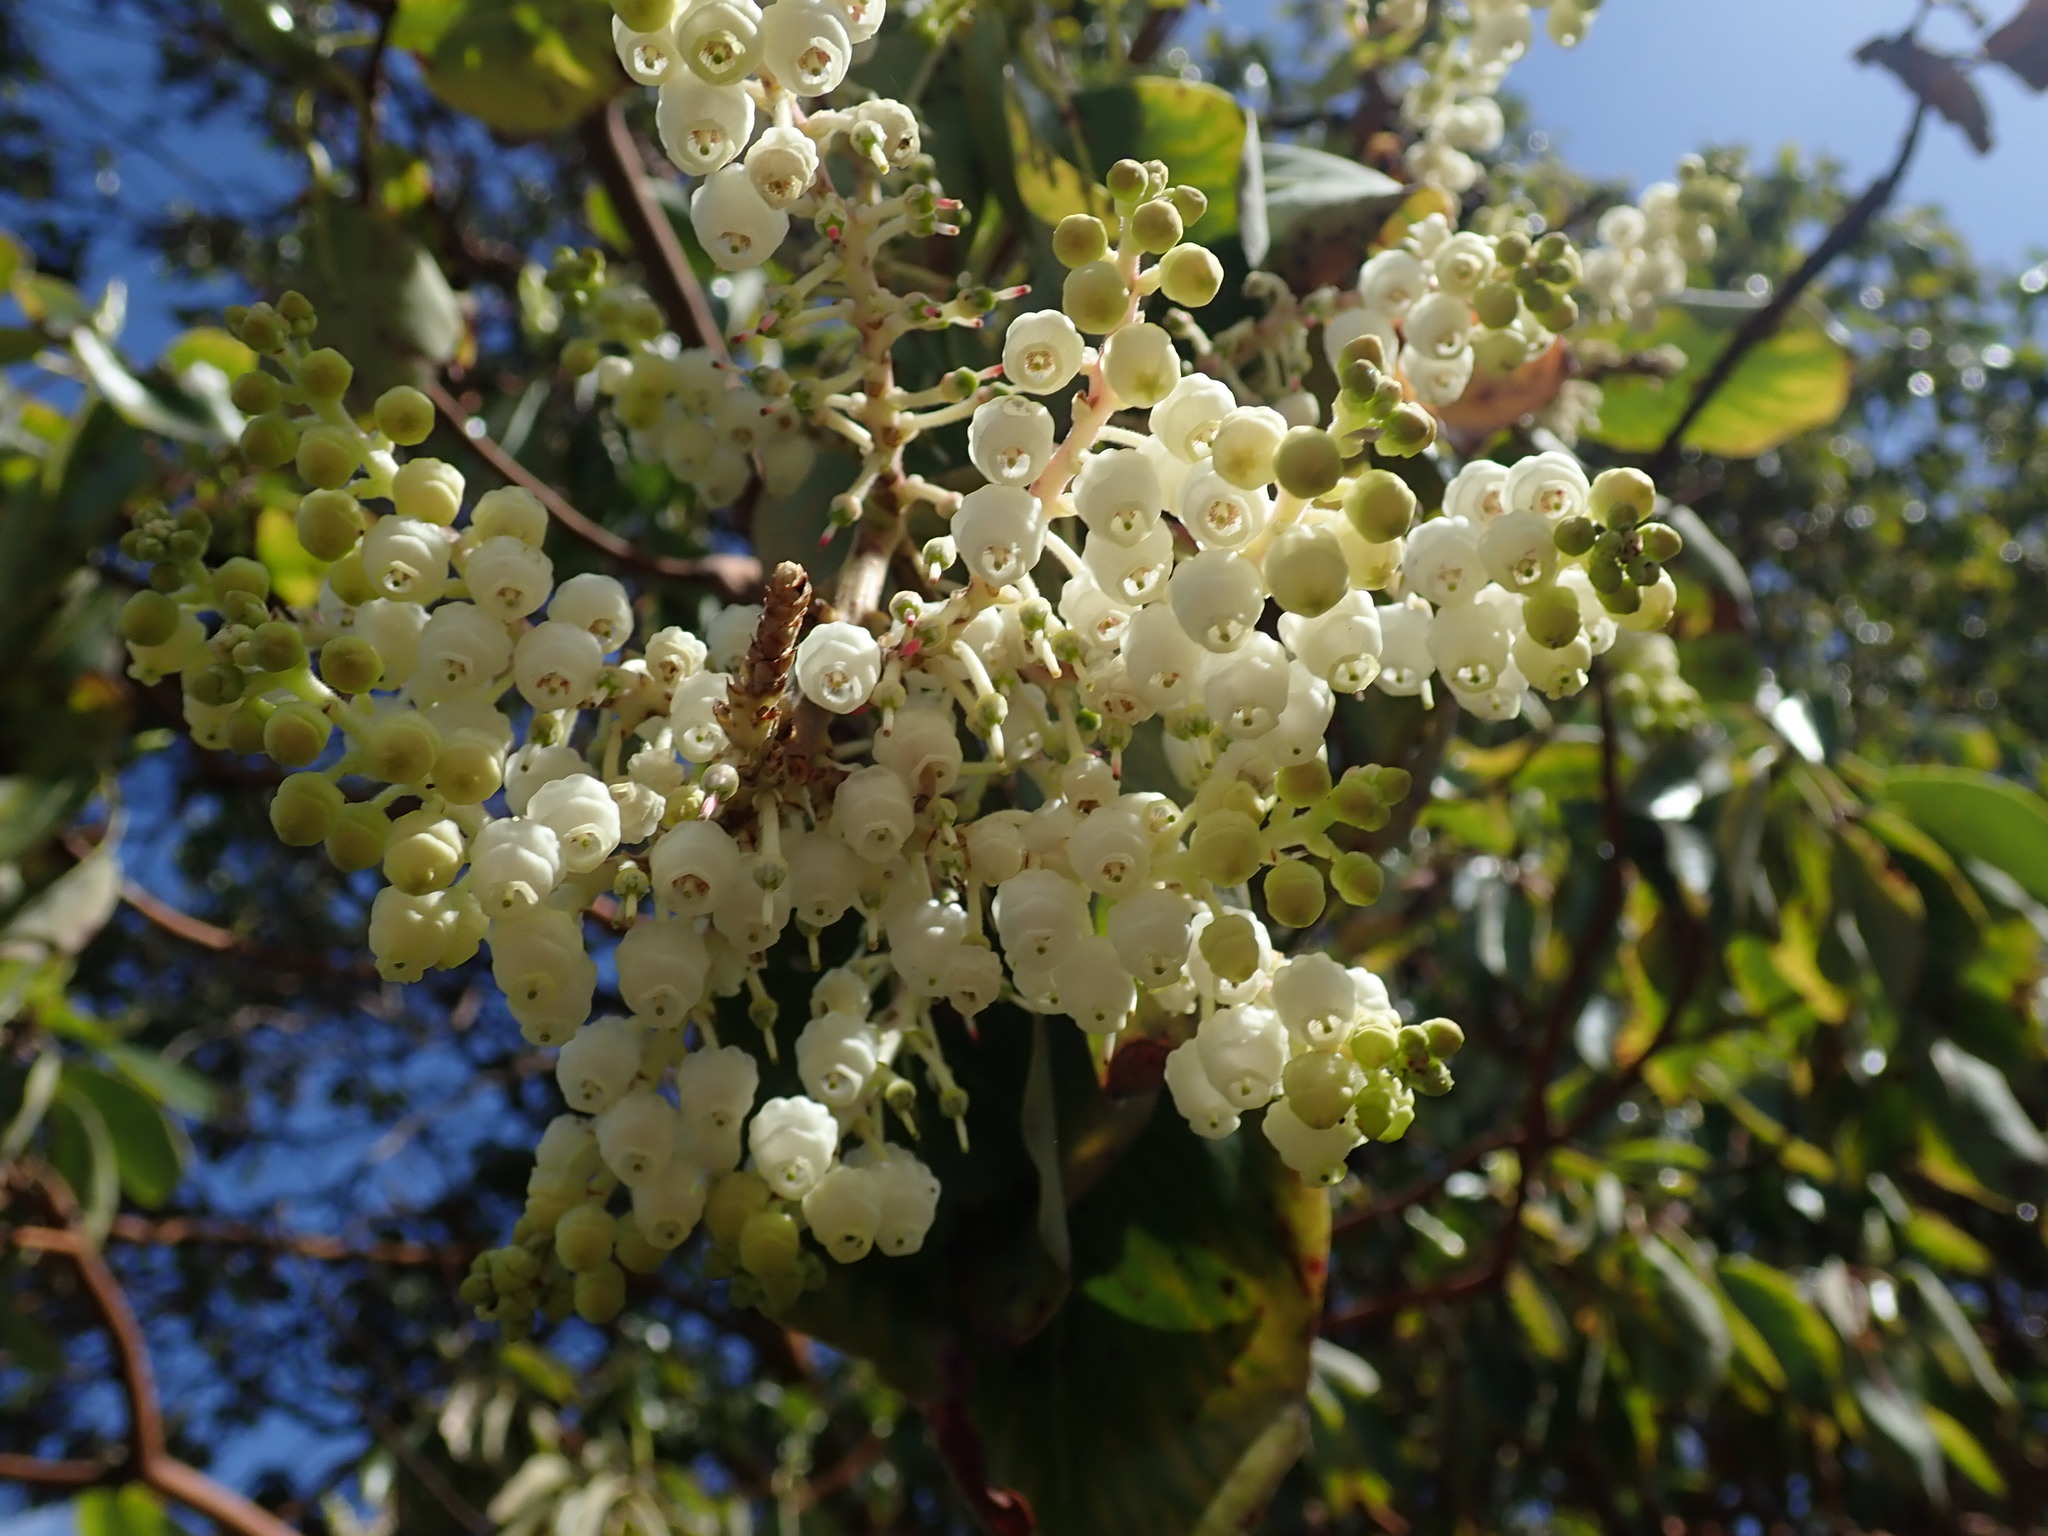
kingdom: Plantae
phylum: Tracheophyta
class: Magnoliopsida
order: Ericales
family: Ericaceae
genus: Arbutus
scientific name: Arbutus menziesii
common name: Pacific madrone
